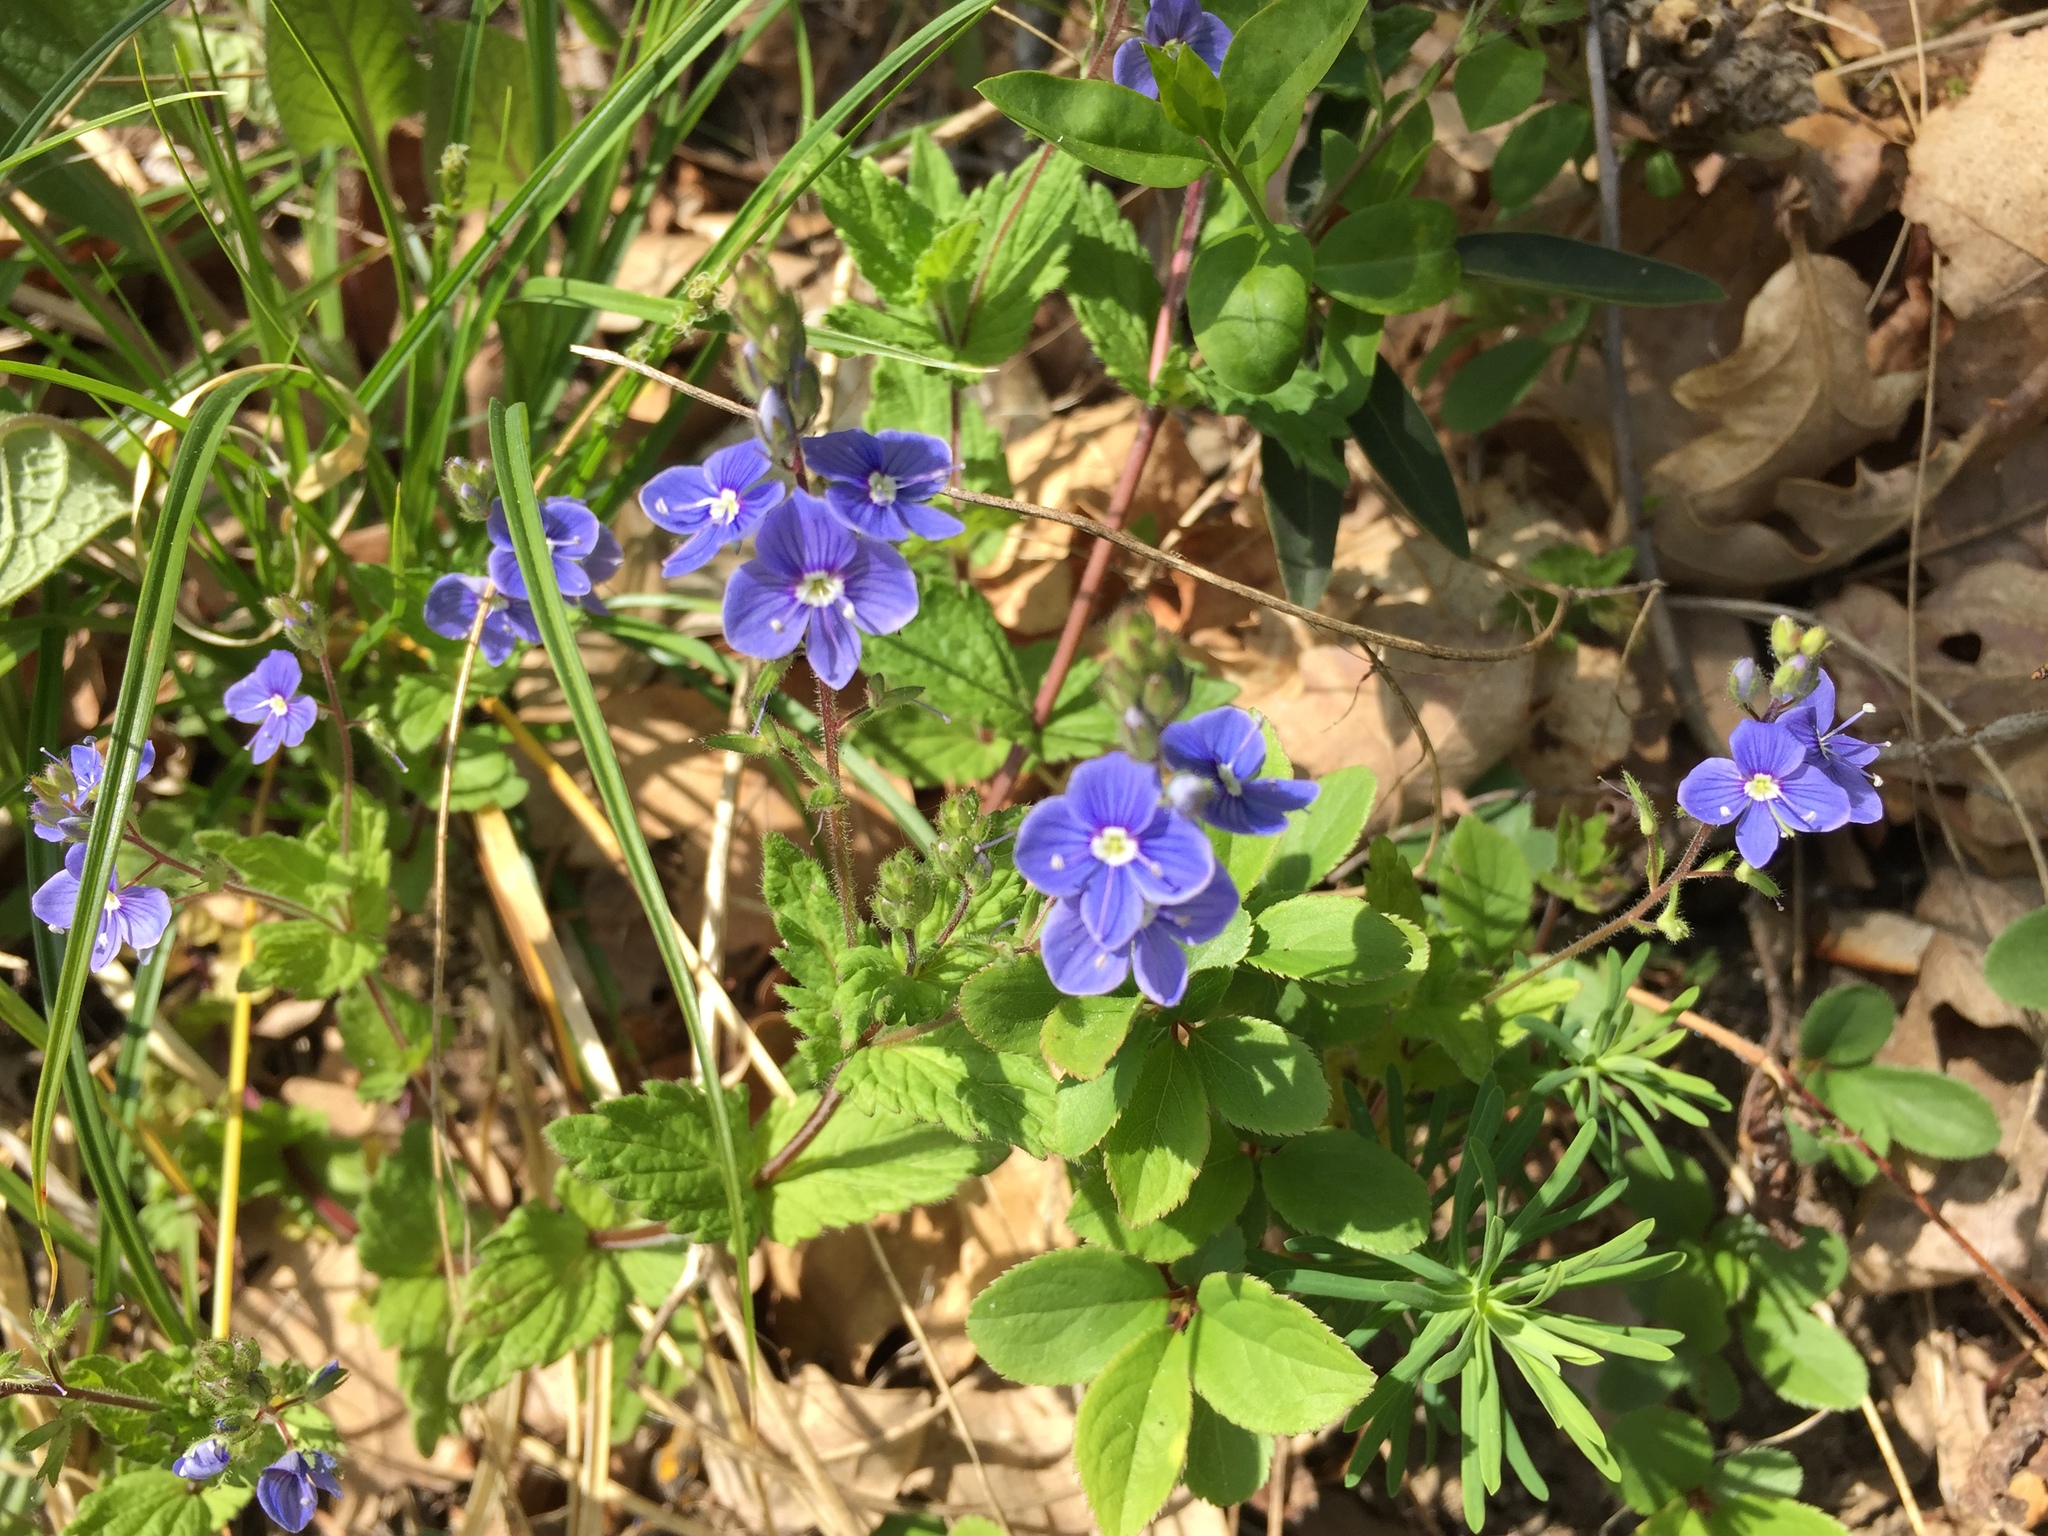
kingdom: Plantae
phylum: Tracheophyta
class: Magnoliopsida
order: Lamiales
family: Plantaginaceae
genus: Veronica
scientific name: Veronica chamaedrys
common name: Germander speedwell
